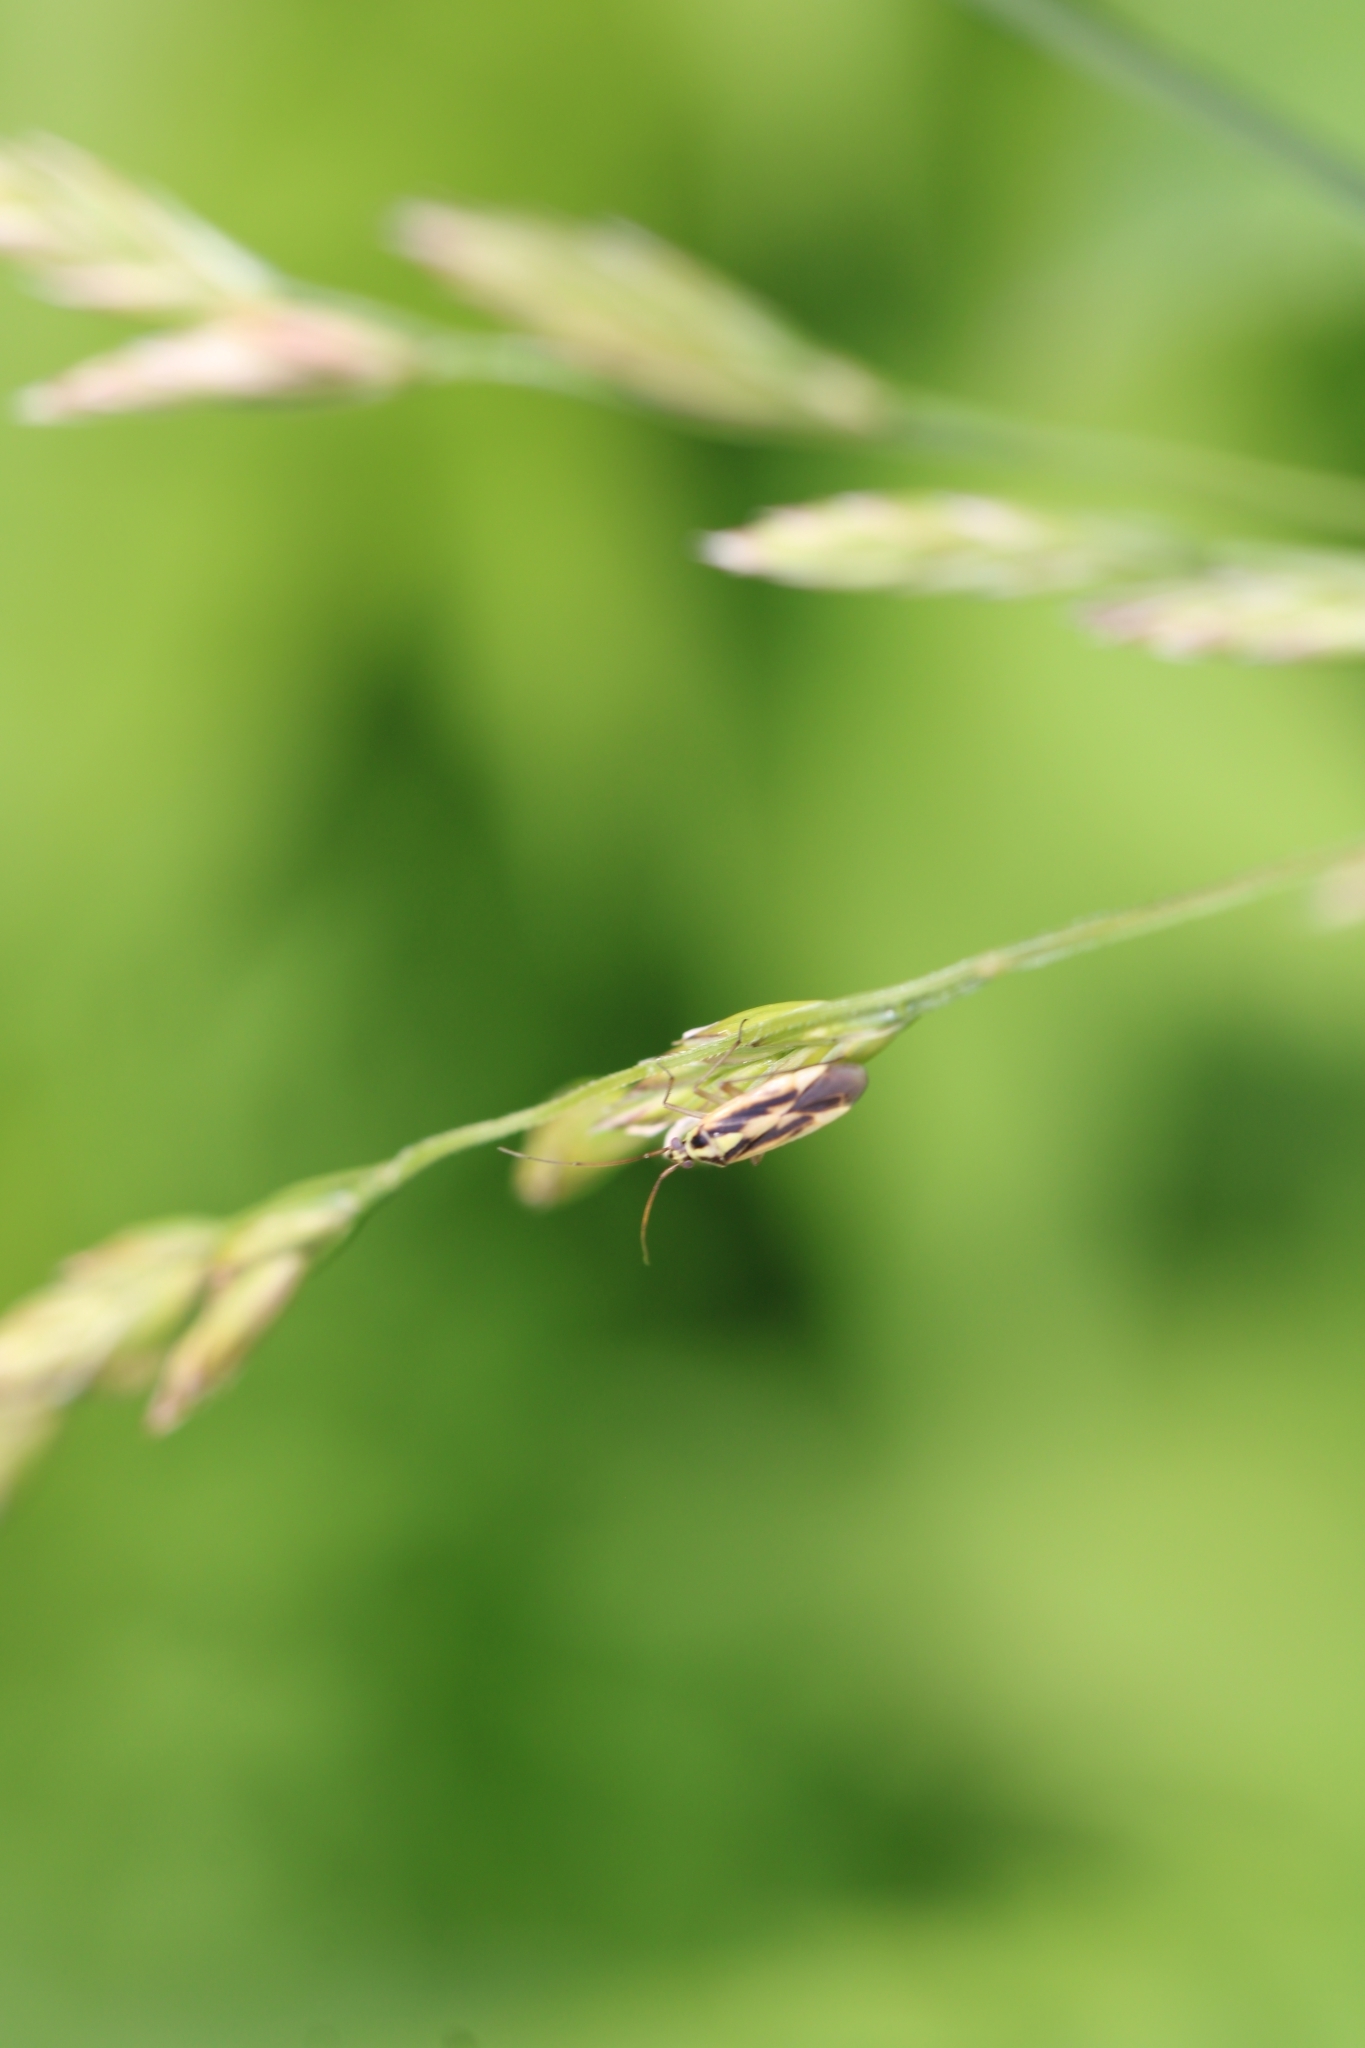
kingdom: Animalia
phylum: Arthropoda
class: Insecta
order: Hemiptera
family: Miridae
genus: Stenotus
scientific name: Stenotus binotatus
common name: Plant bug
